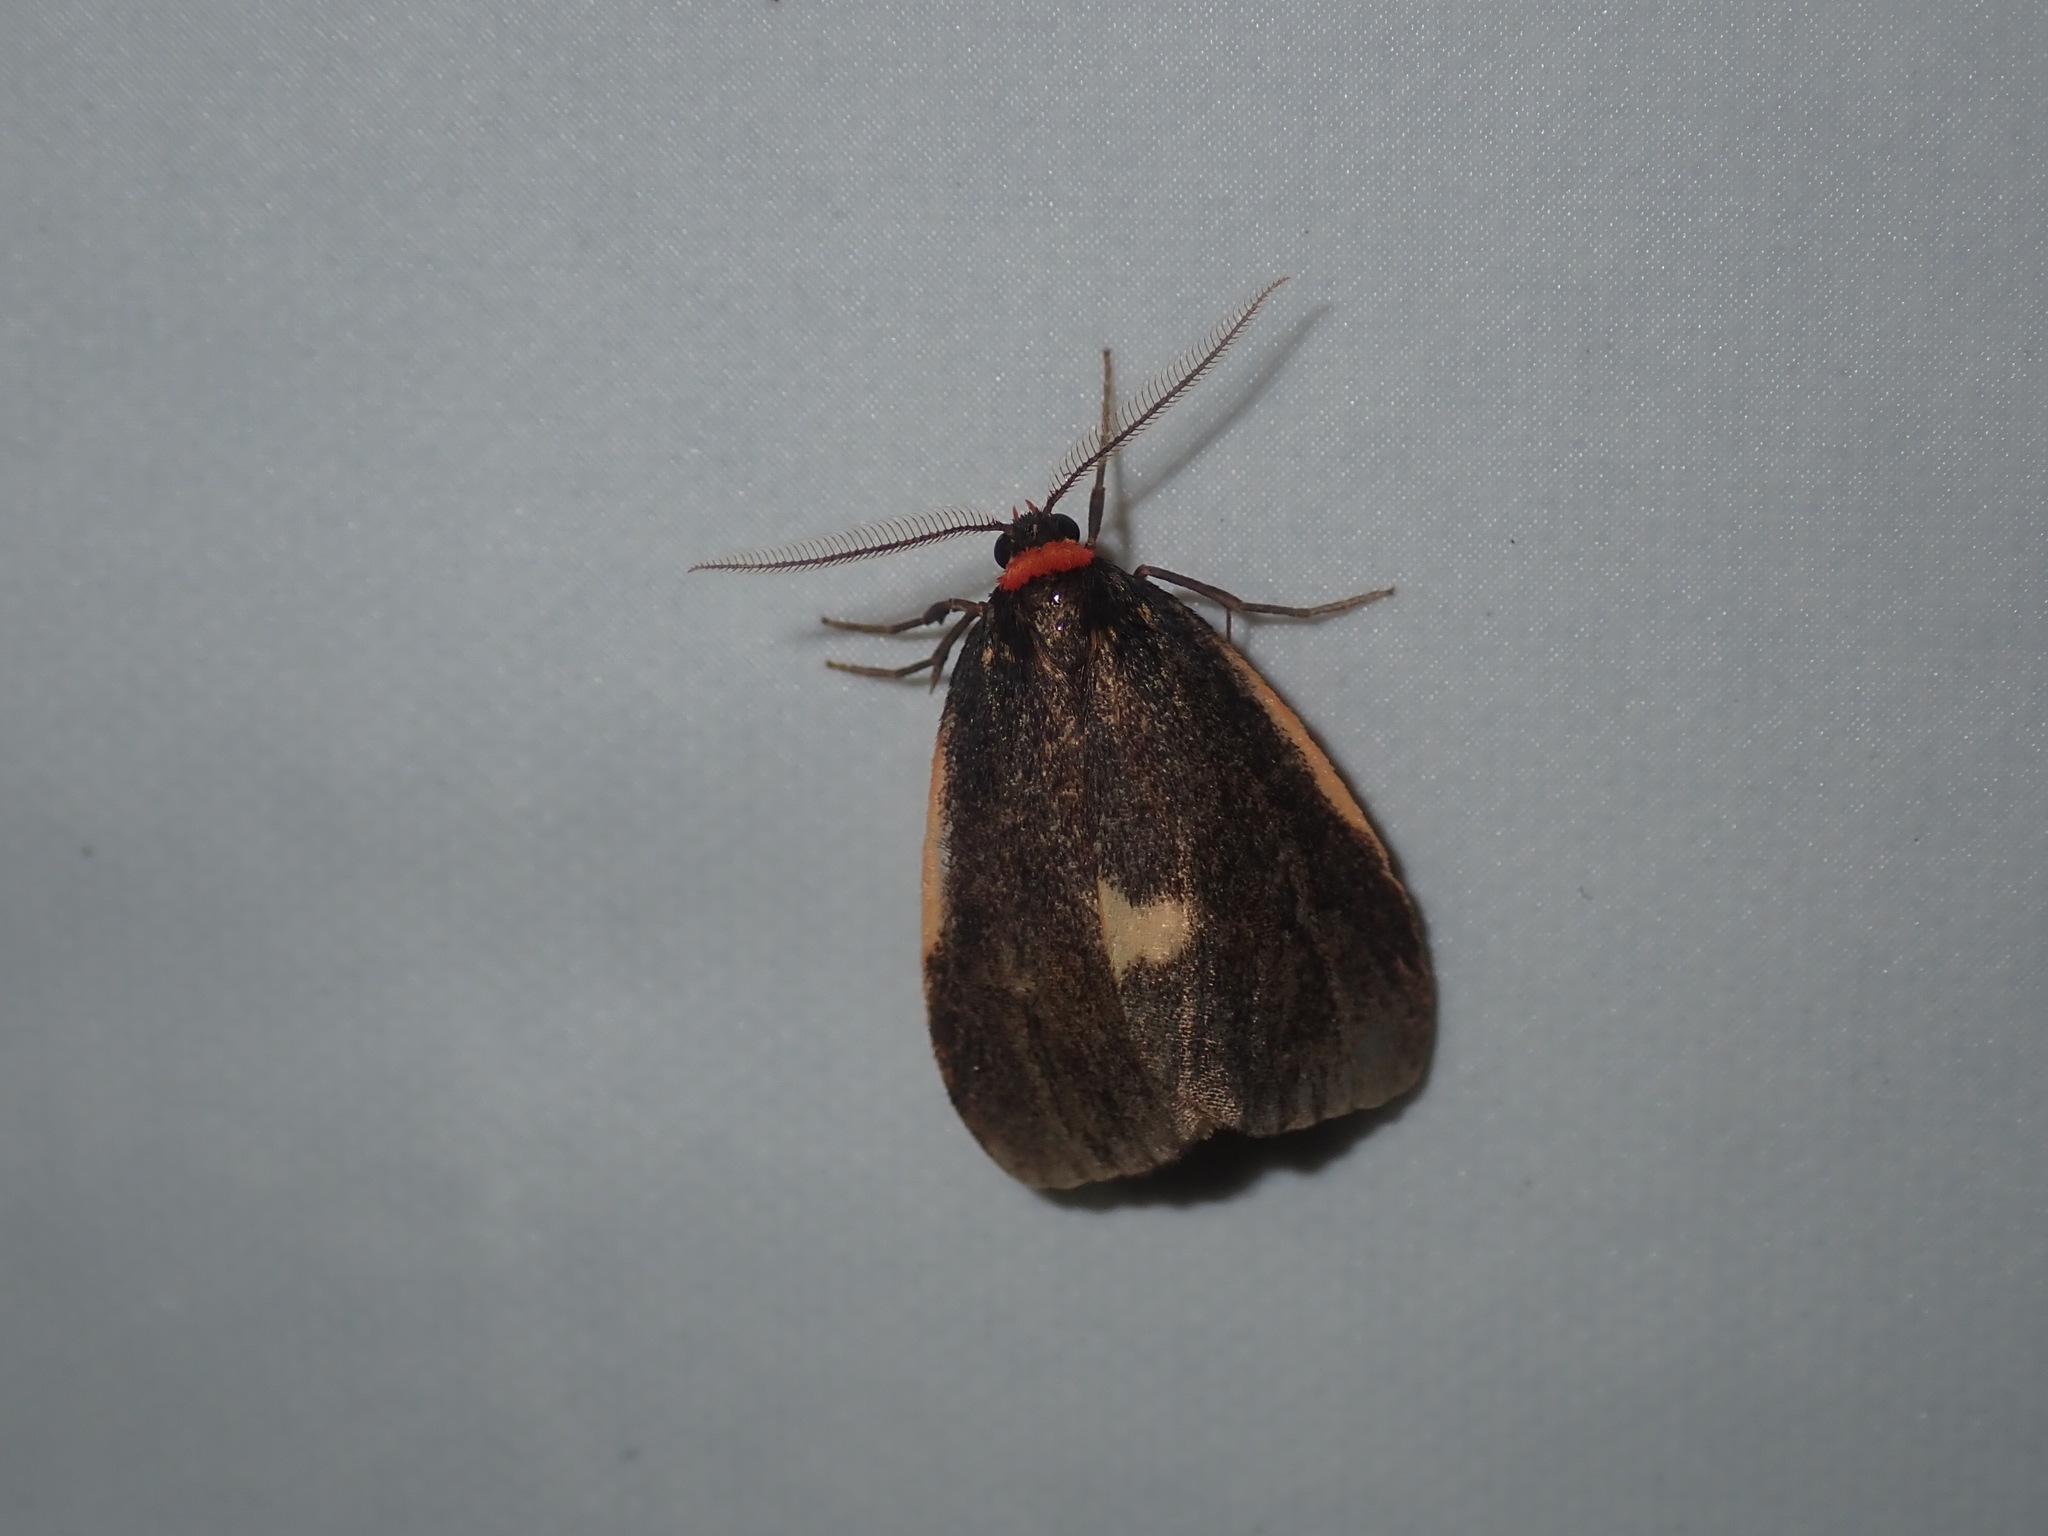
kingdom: Animalia
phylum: Arthropoda
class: Insecta
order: Lepidoptera
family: Erebidae
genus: Castulo
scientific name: Castulo doubledayi
